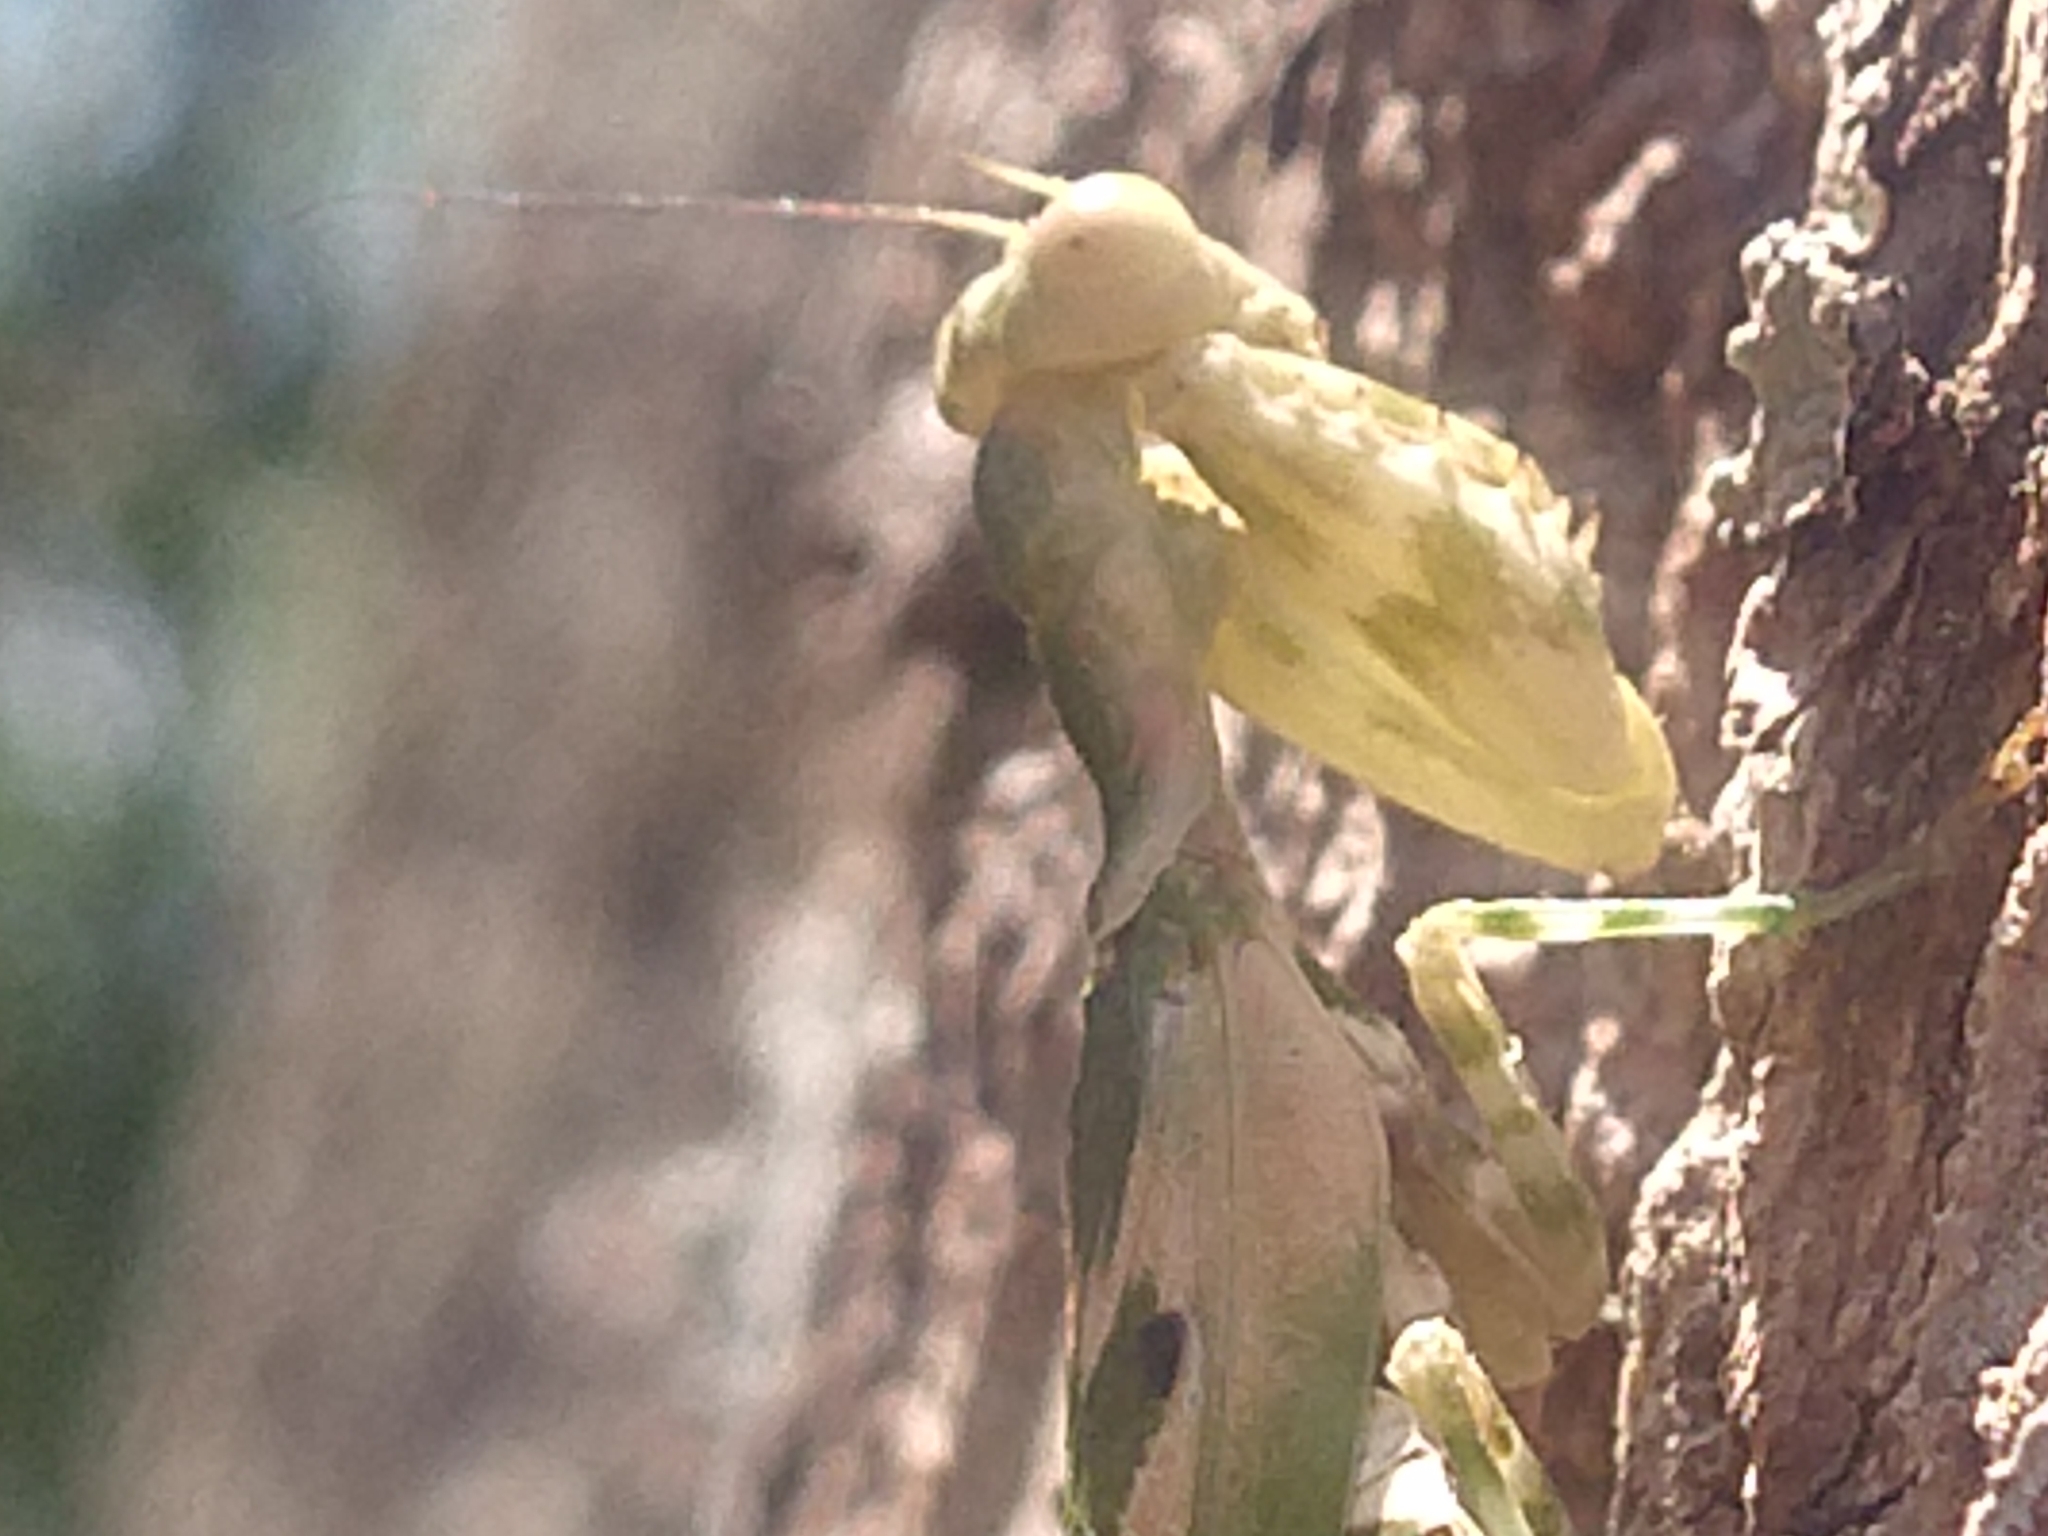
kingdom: Animalia
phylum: Arthropoda
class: Insecta
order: Mantodea
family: Acanthopidae
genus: Acontista
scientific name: Acontista mexicana
